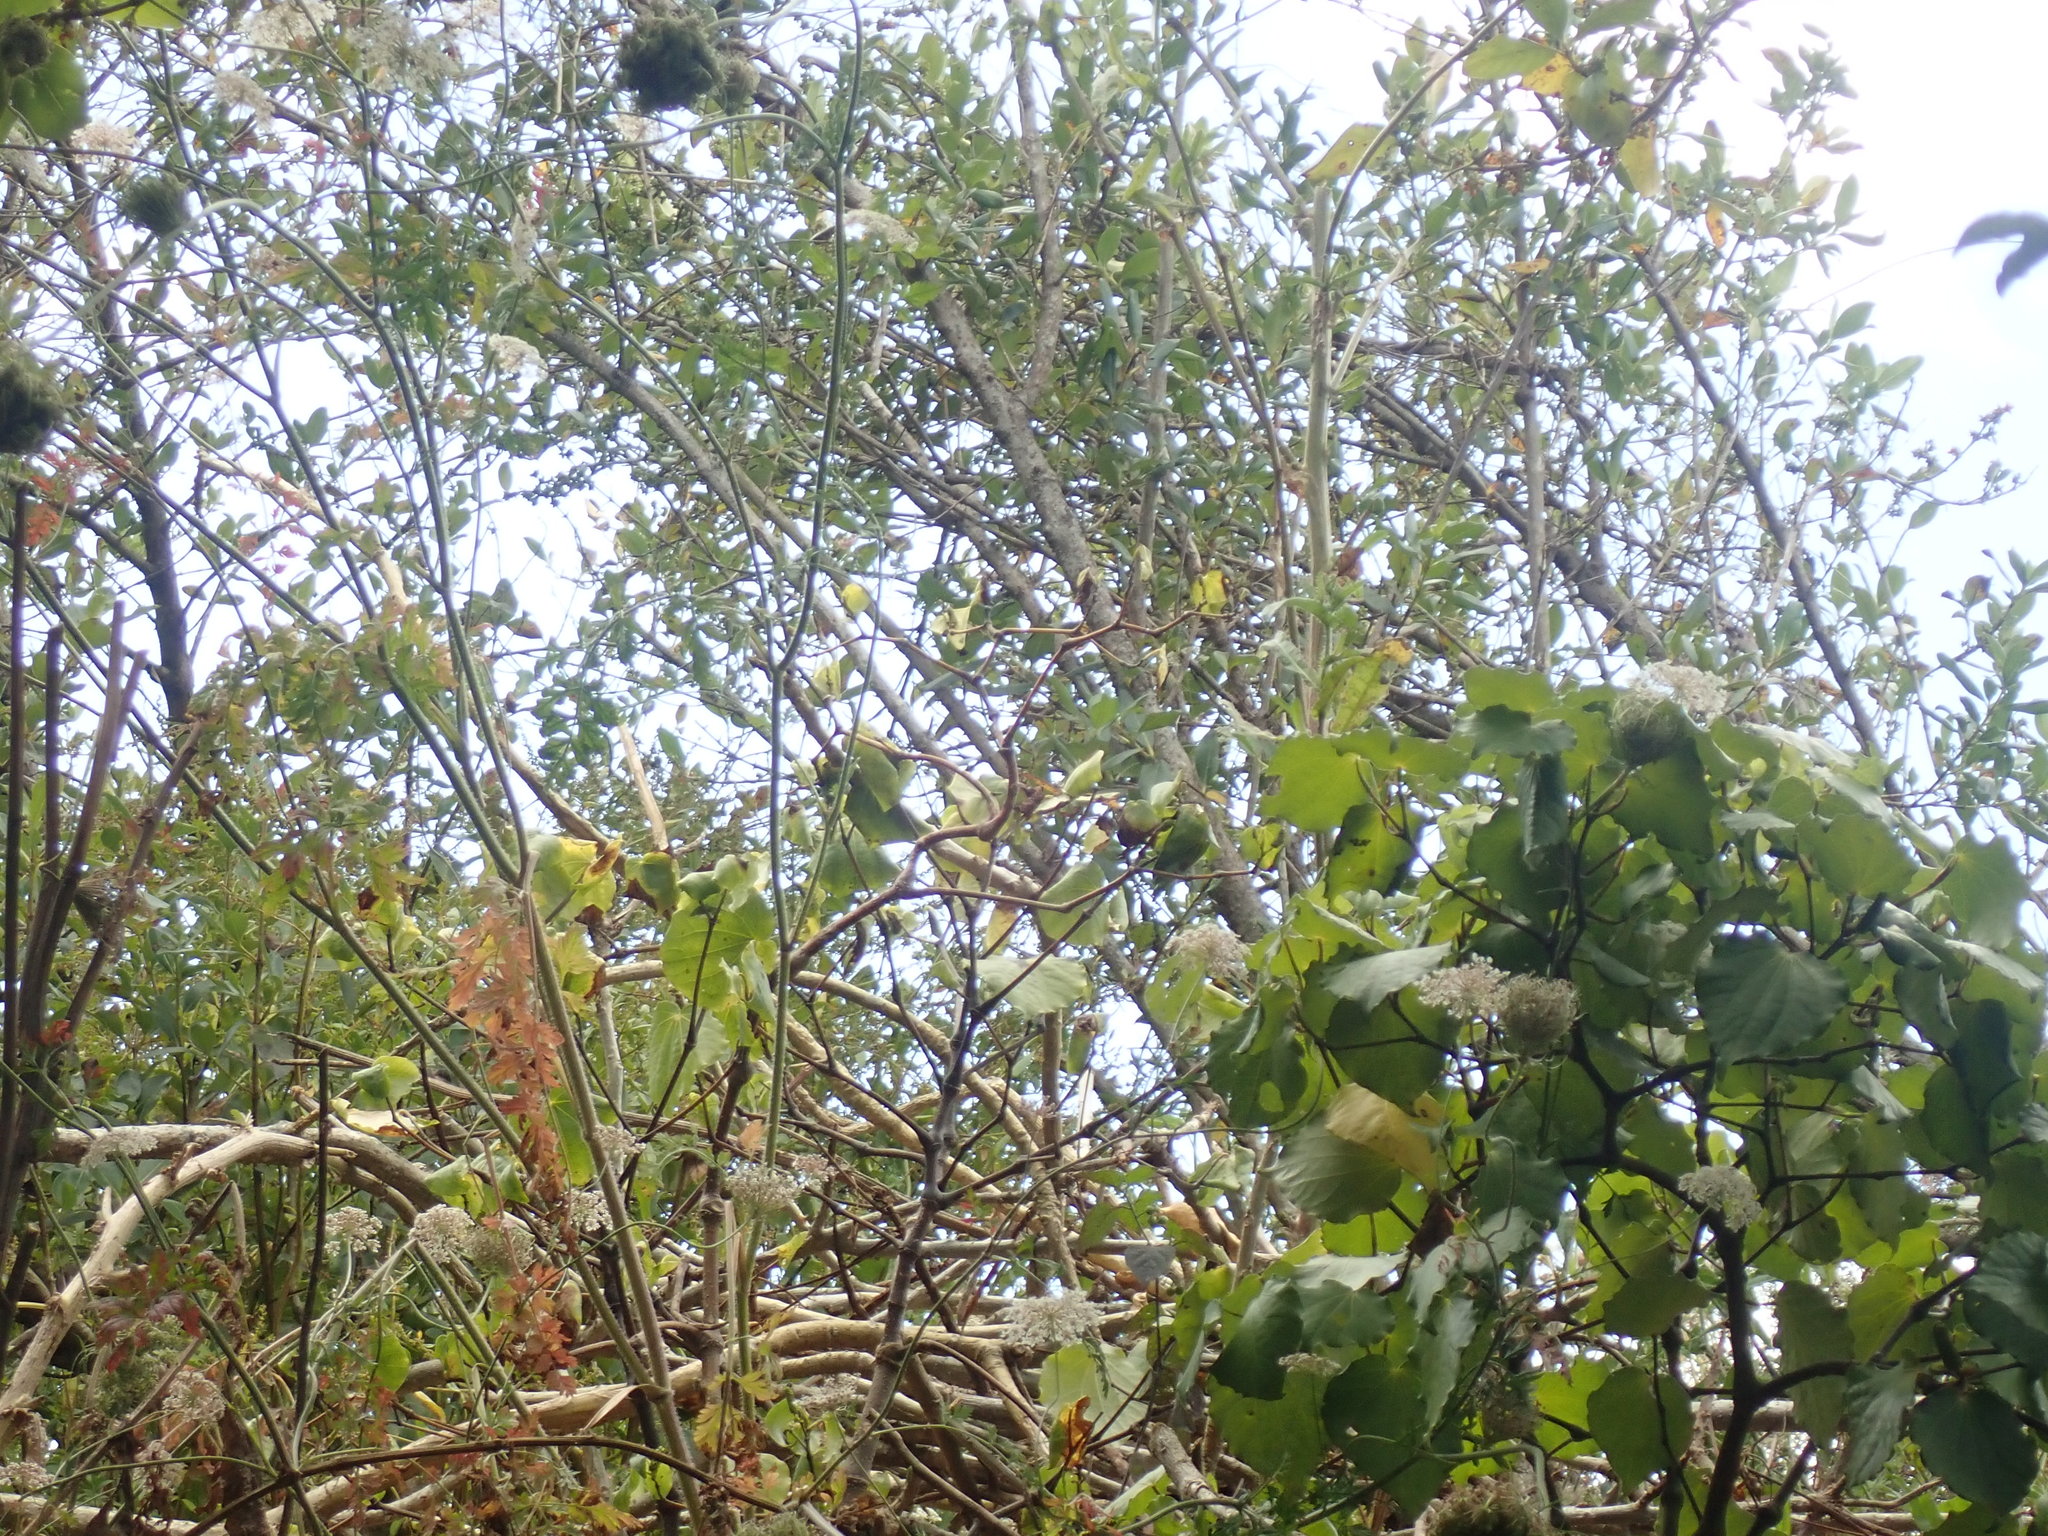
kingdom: Plantae
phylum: Tracheophyta
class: Magnoliopsida
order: Piperales
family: Piperaceae
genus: Macropiper
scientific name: Macropiper excelsum
